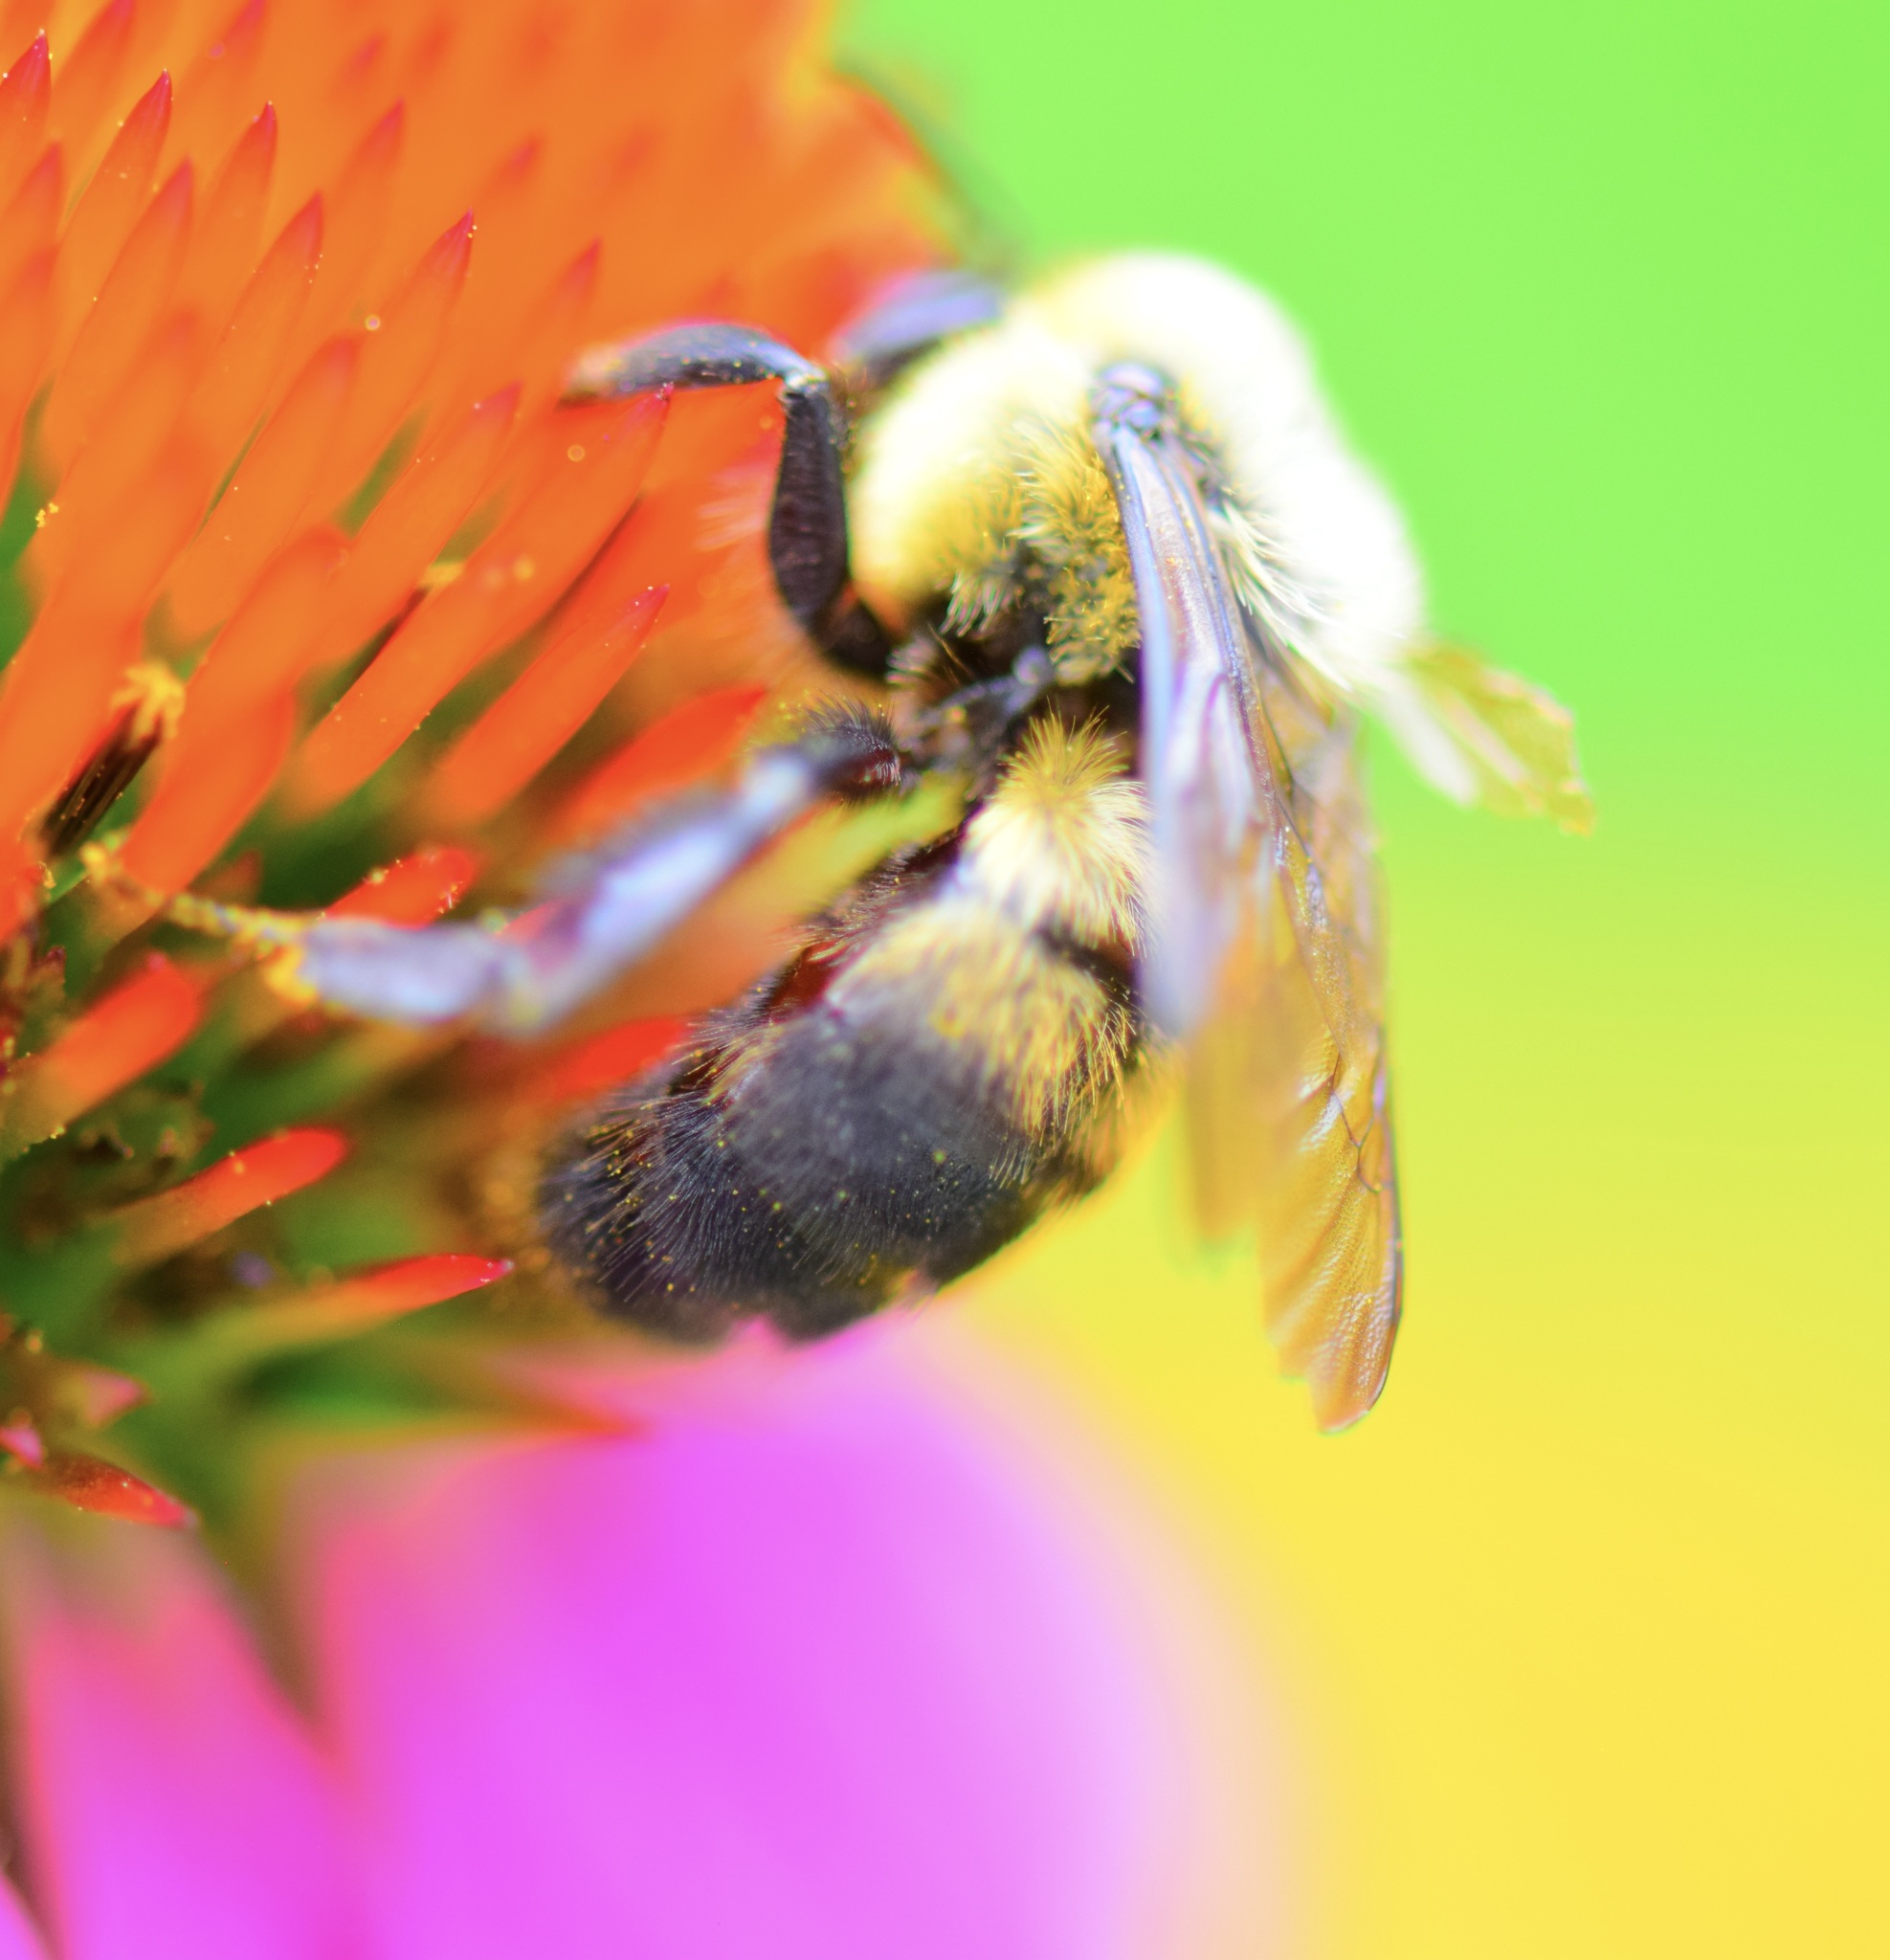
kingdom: Animalia
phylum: Arthropoda
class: Insecta
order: Hymenoptera
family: Apidae
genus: Bombus
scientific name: Bombus griseocollis
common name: Brown-belted bumble bee
